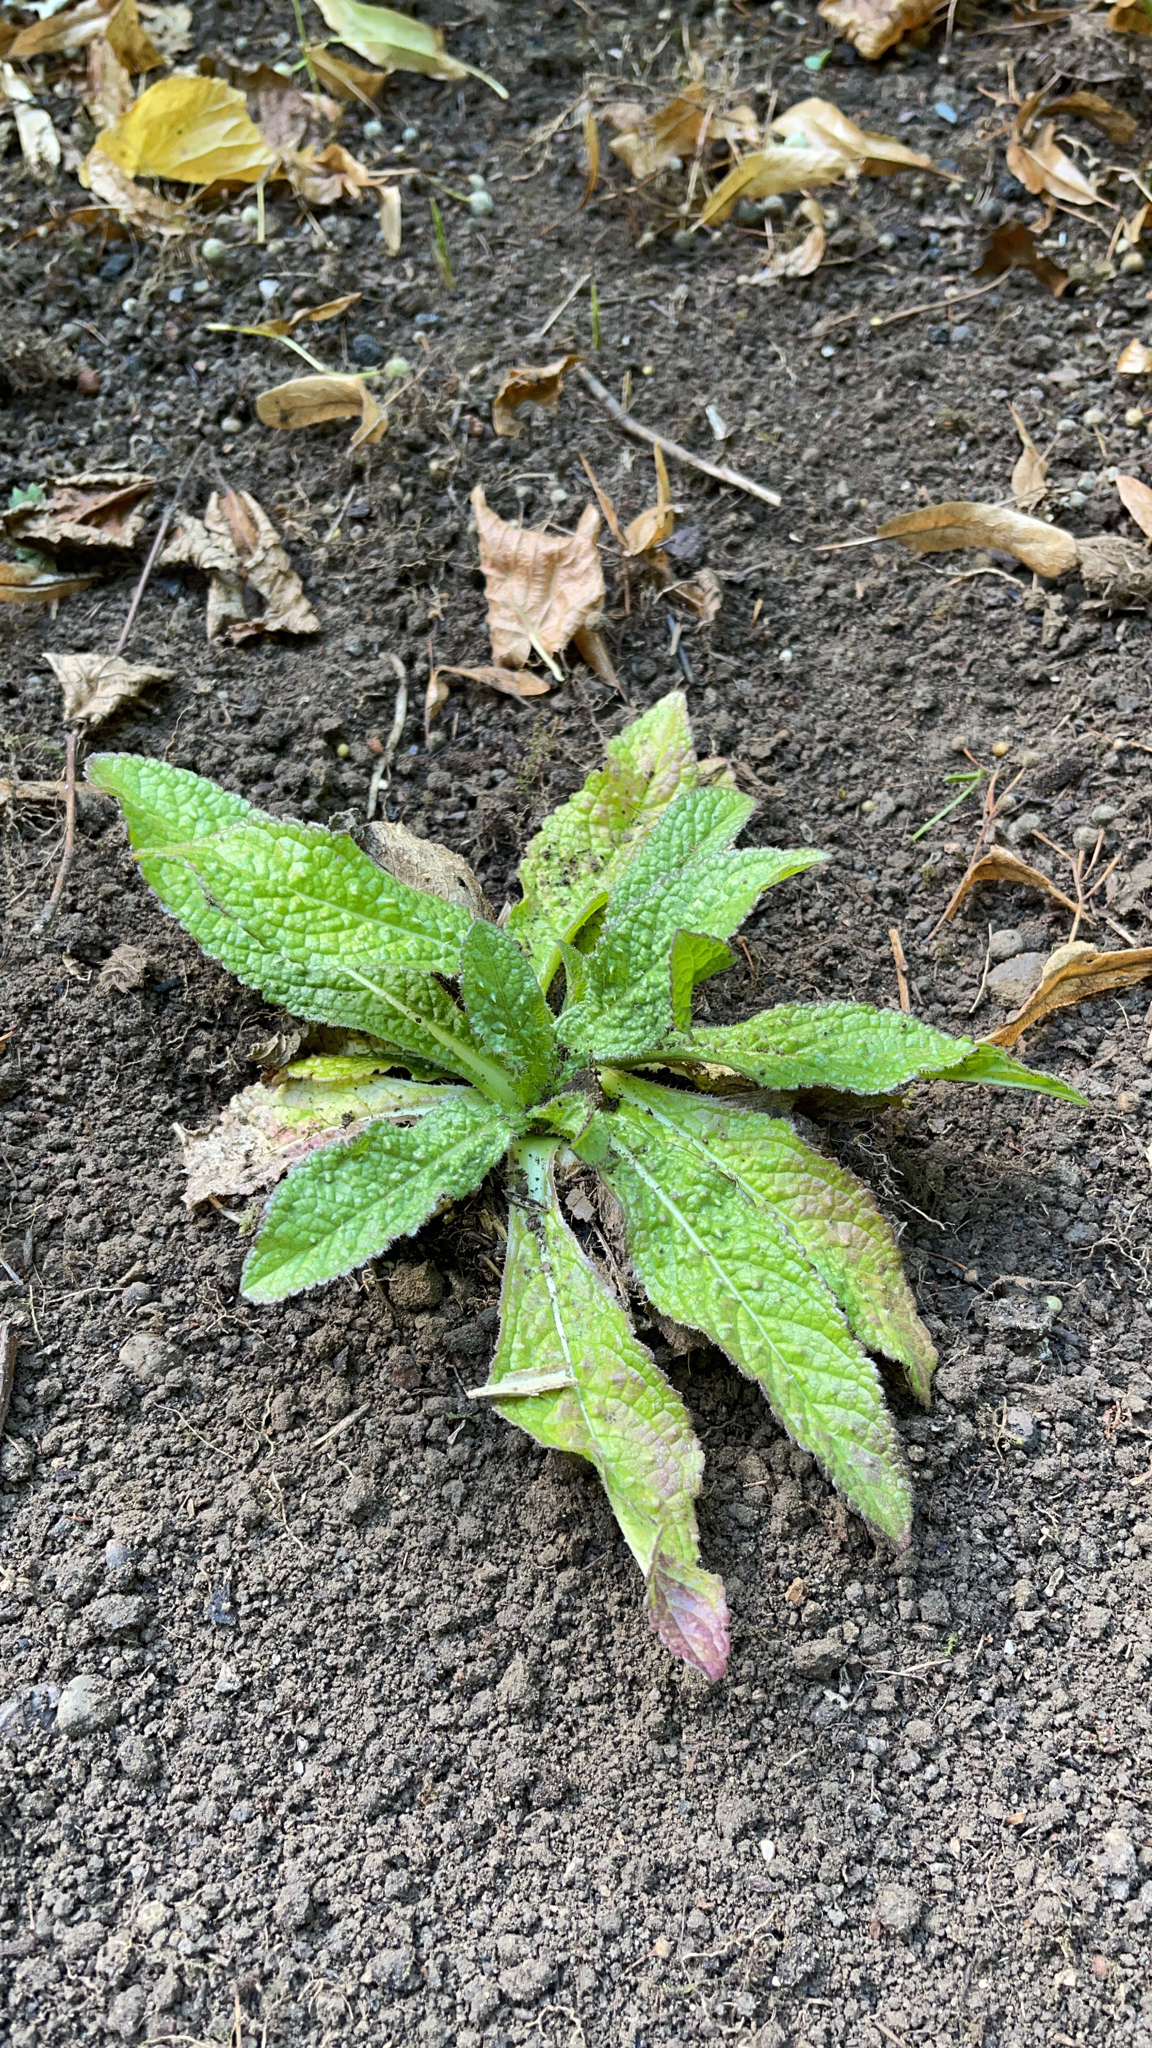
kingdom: Plantae
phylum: Tracheophyta
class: Magnoliopsida
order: Dipsacales
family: Caprifoliaceae
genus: Dipsacus
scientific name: Dipsacus fullonum
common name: Teasel
